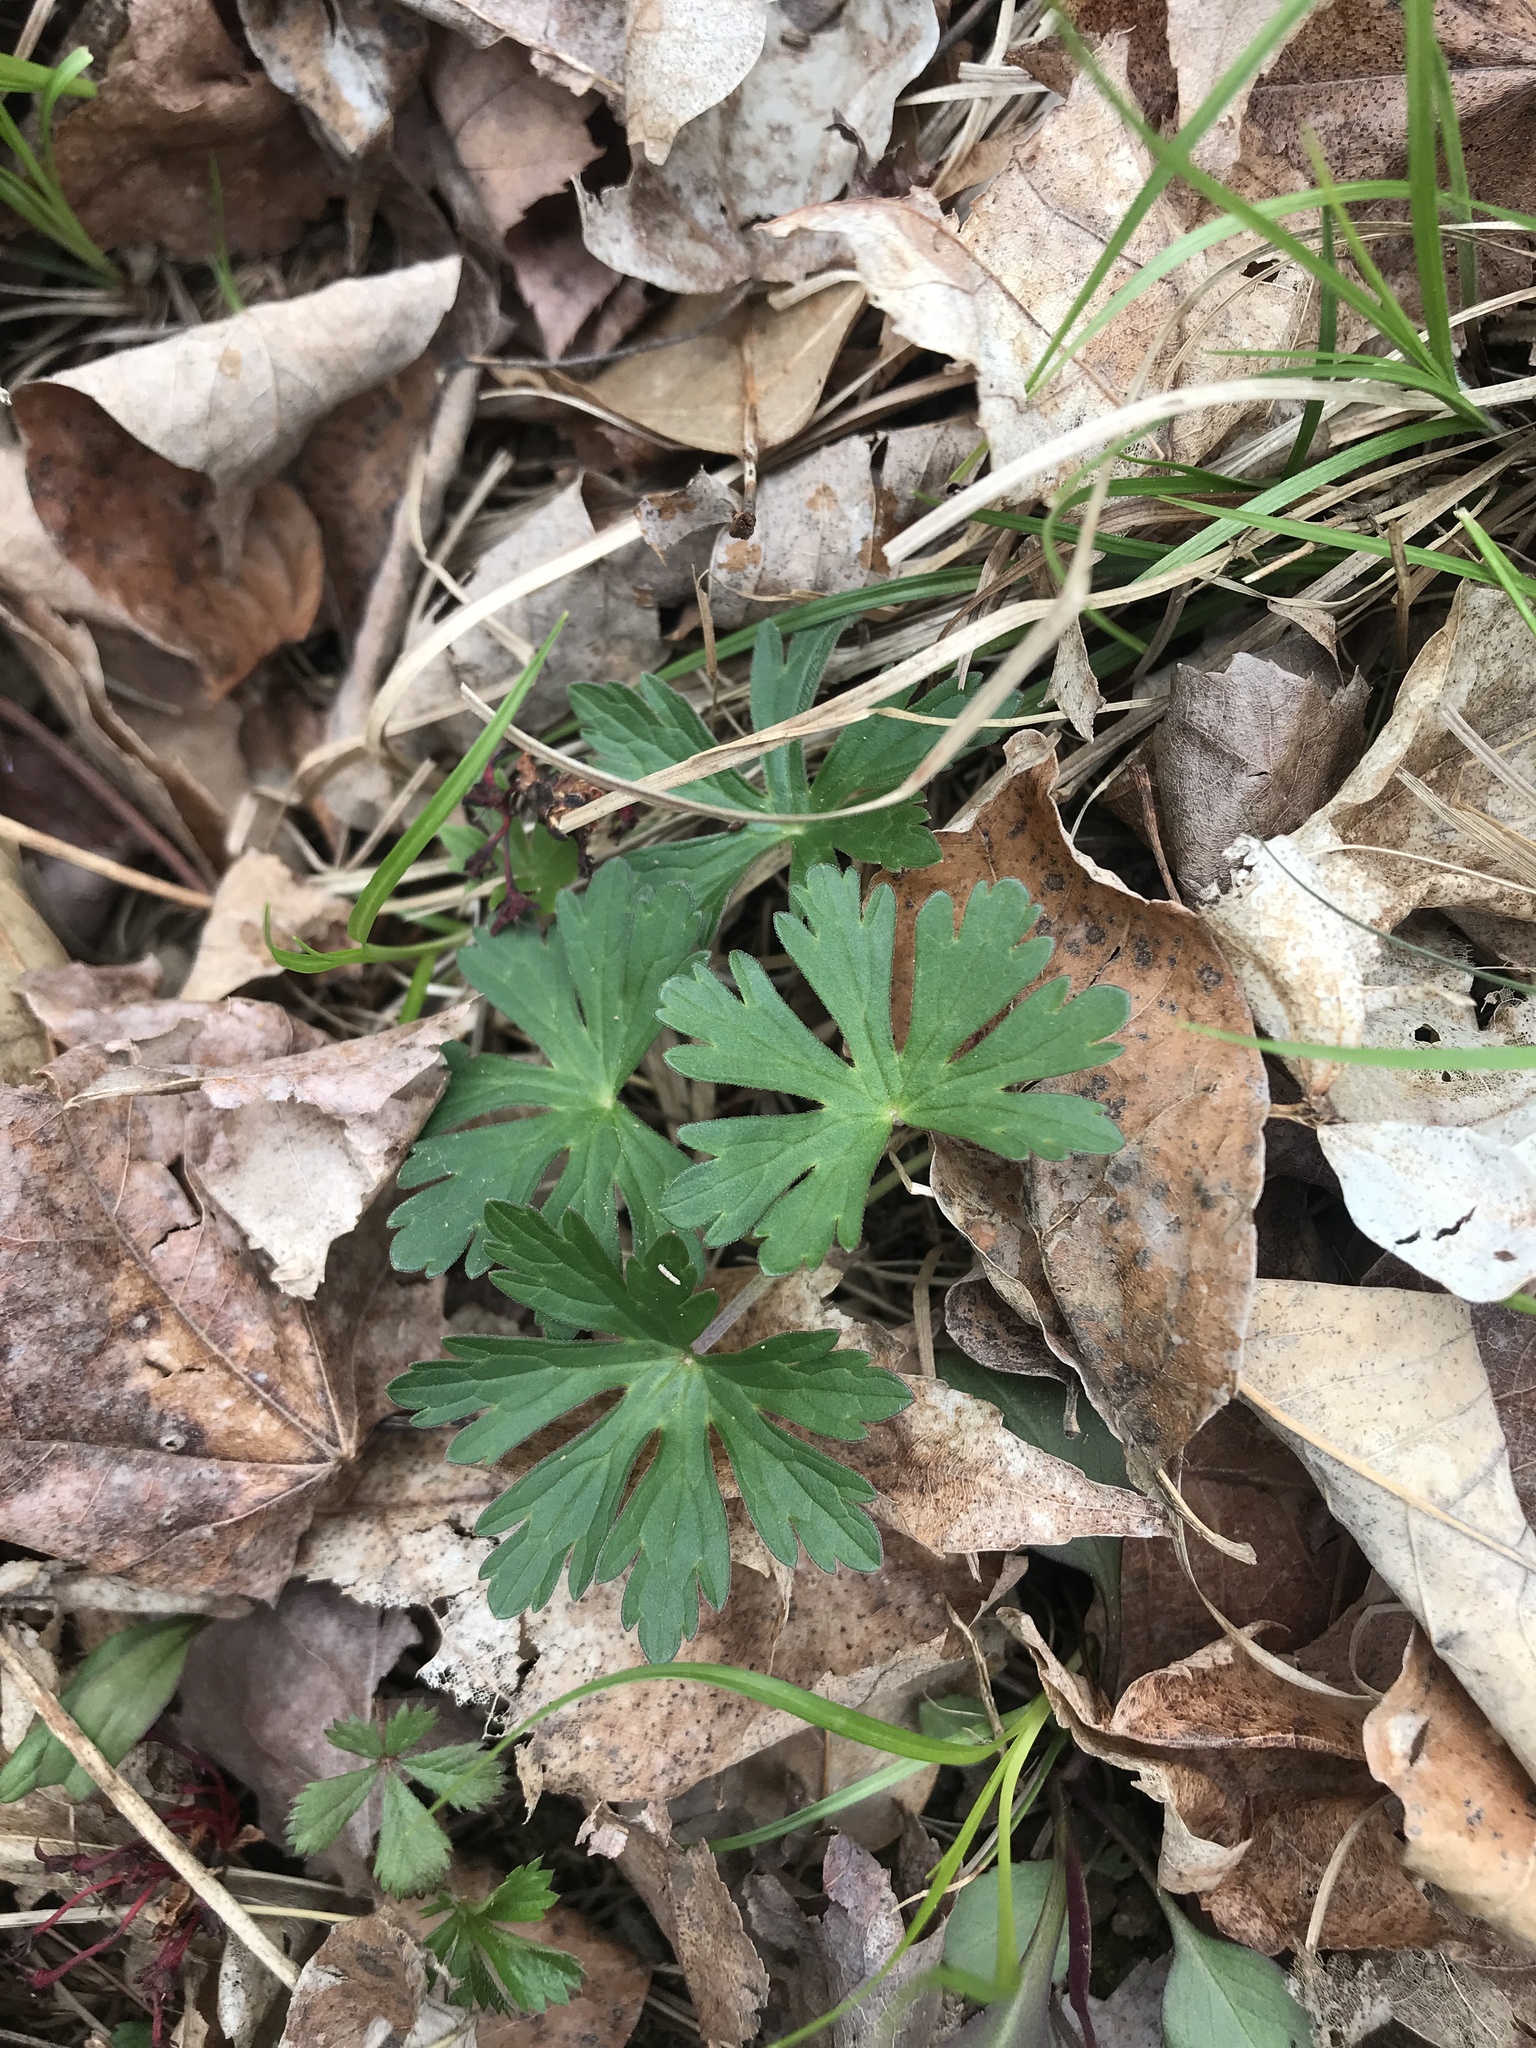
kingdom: Plantae
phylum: Tracheophyta
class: Magnoliopsida
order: Geraniales
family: Geraniaceae
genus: Geranium
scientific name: Geranium maculatum
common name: Spotted geranium
